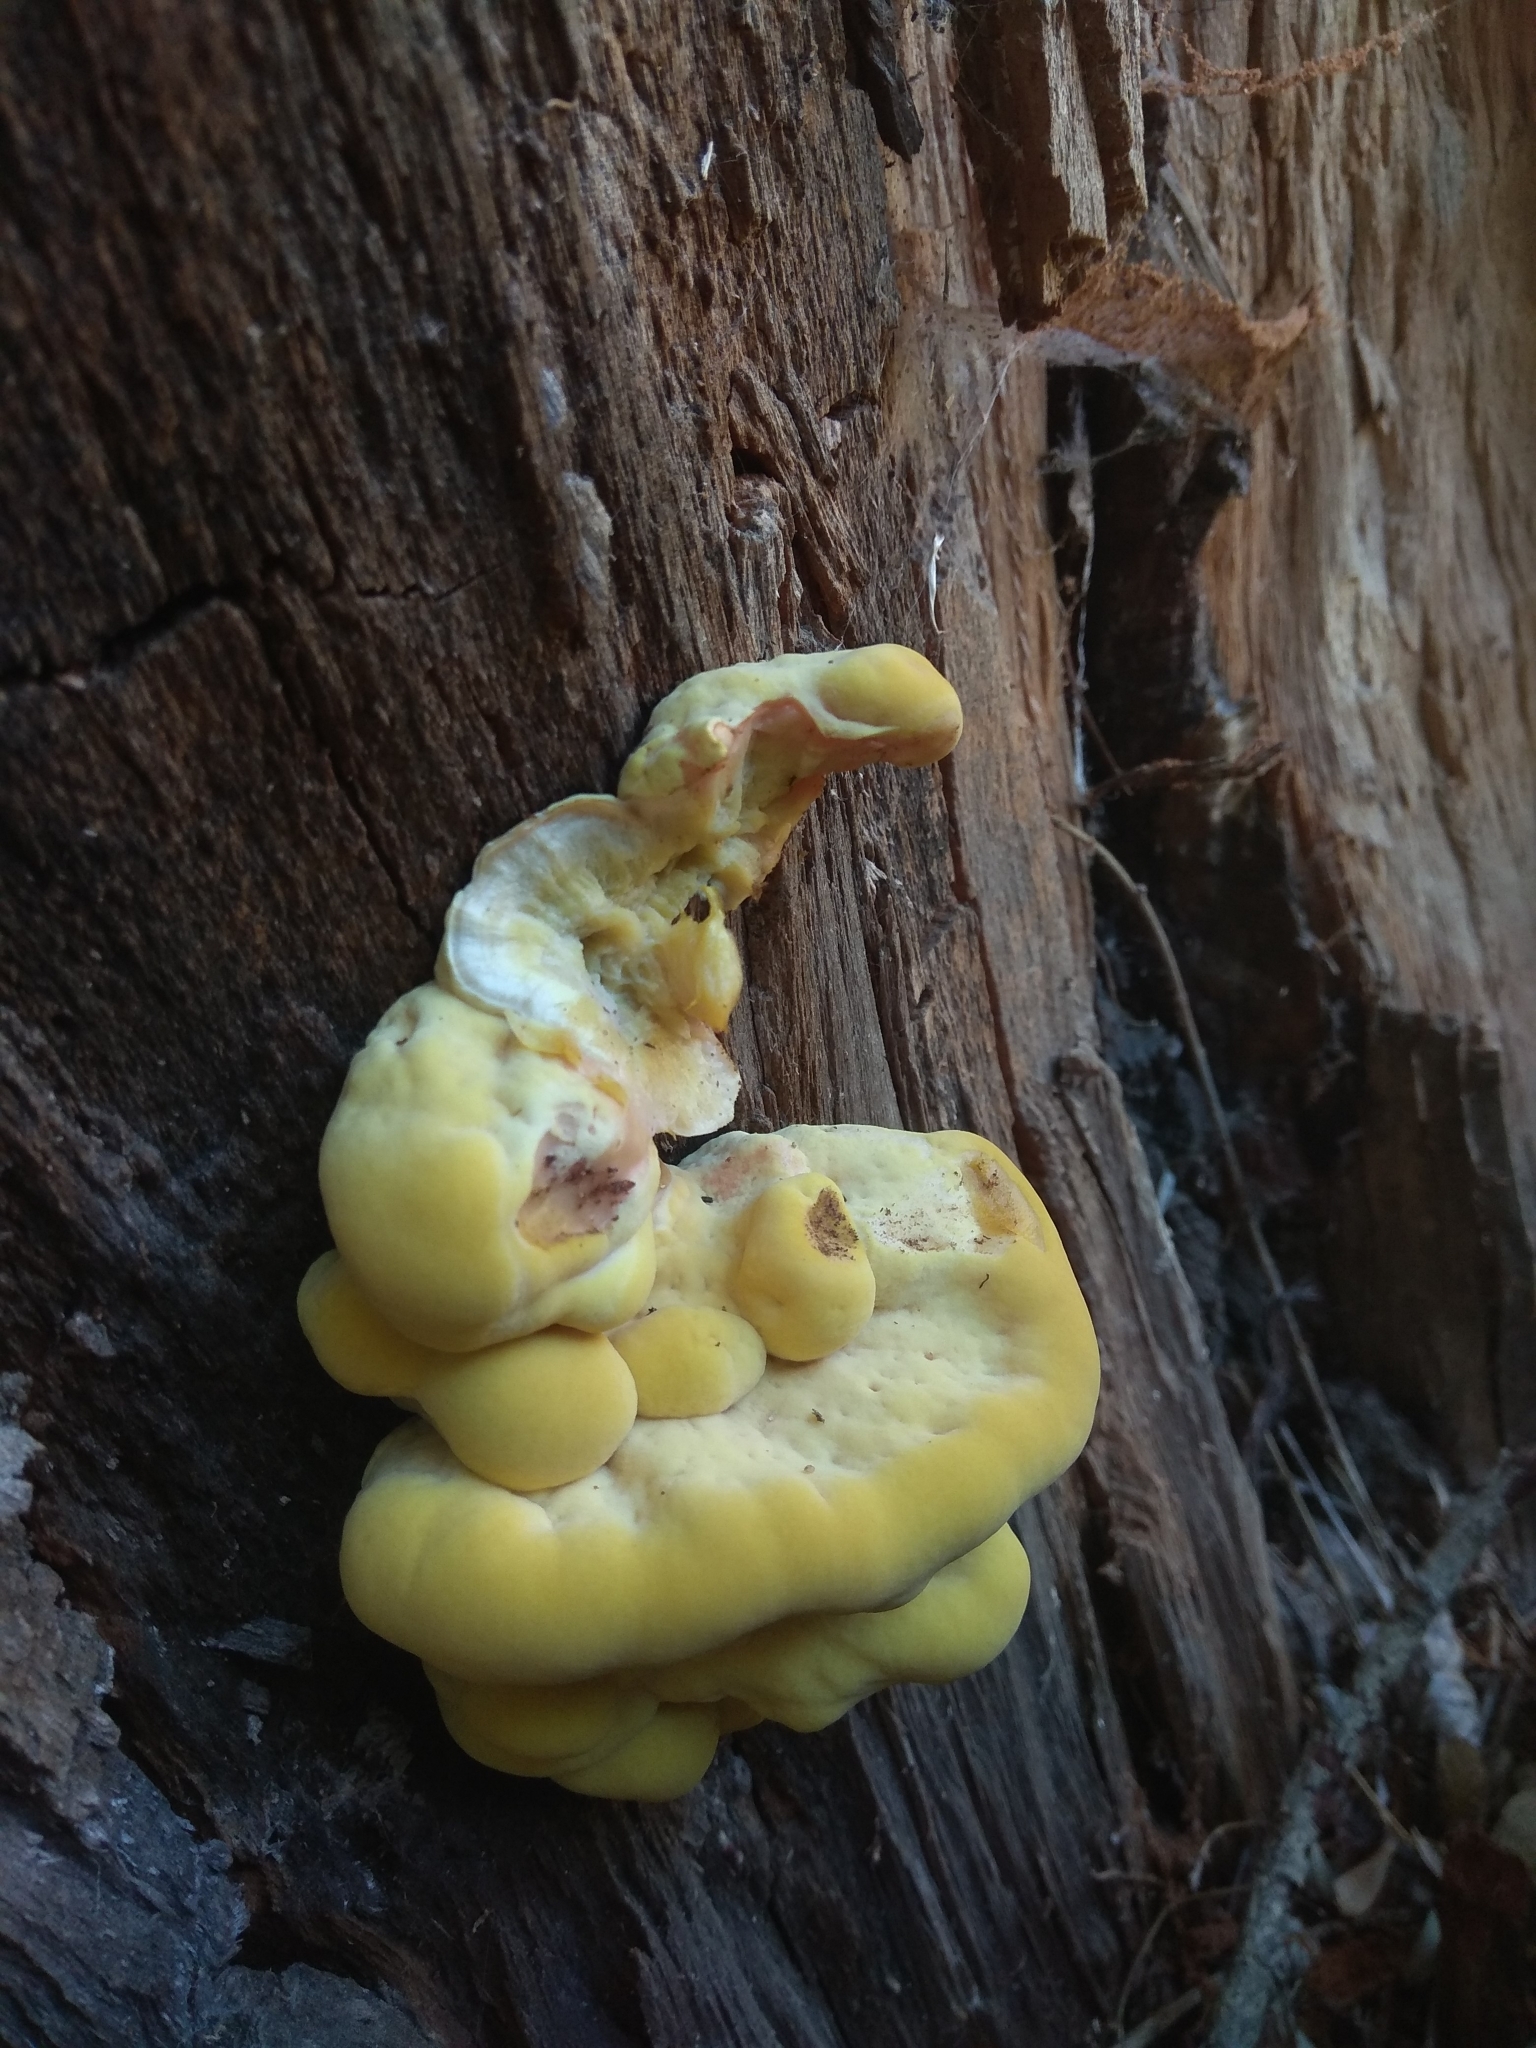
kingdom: Fungi
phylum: Basidiomycota
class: Agaricomycetes
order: Polyporales
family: Laetiporaceae
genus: Laetiporus
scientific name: Laetiporus sulphureus
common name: Chicken of the woods
